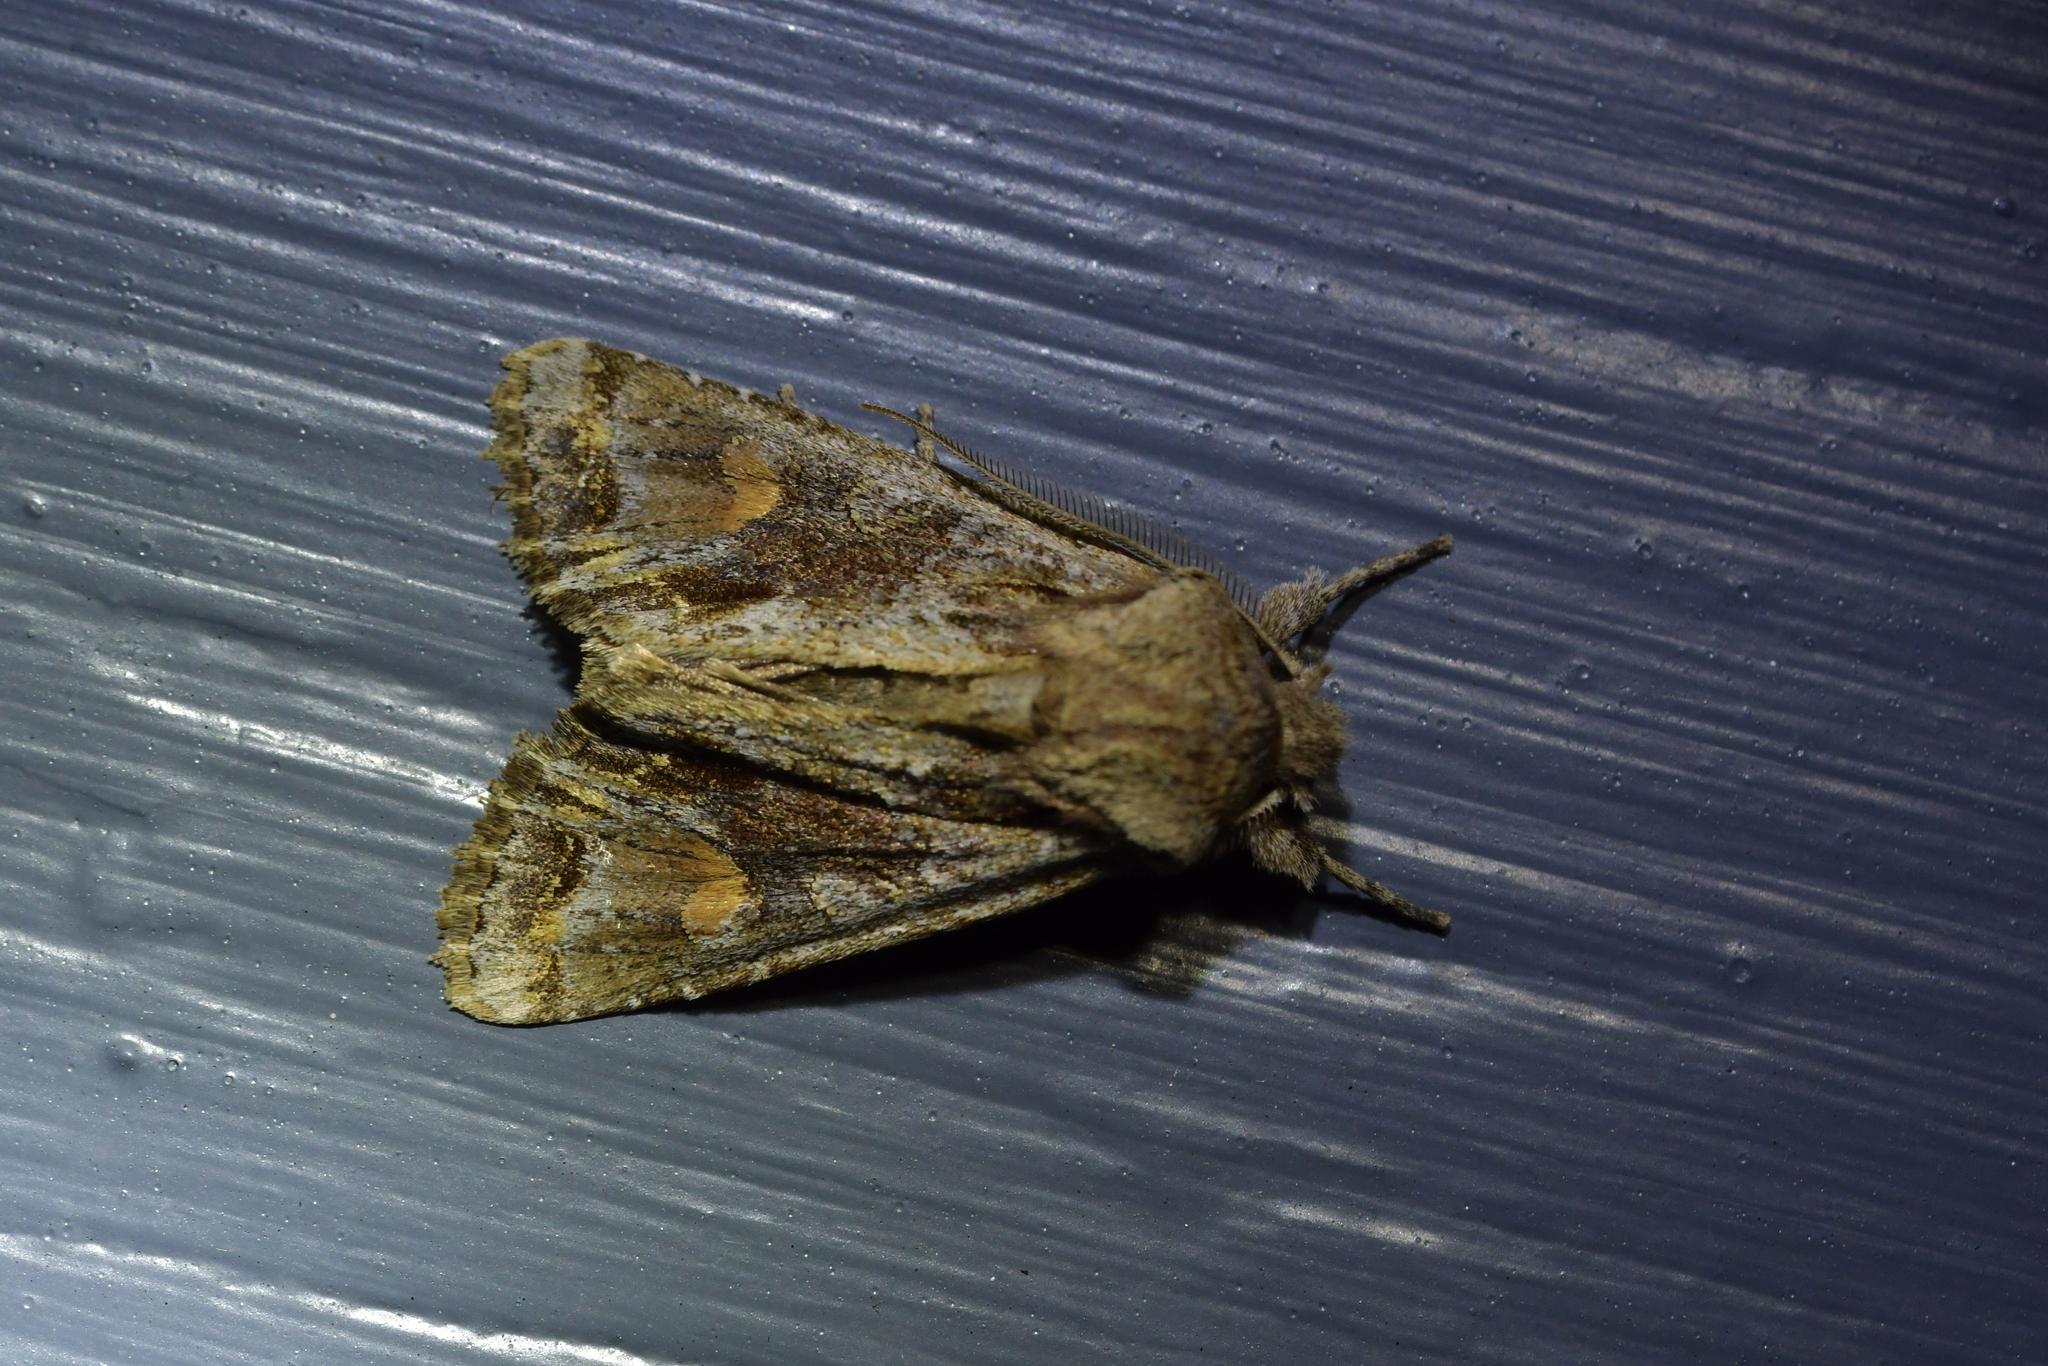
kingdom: Animalia
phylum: Arthropoda
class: Insecta
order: Lepidoptera
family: Noctuidae
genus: Ichneutica
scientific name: Ichneutica
